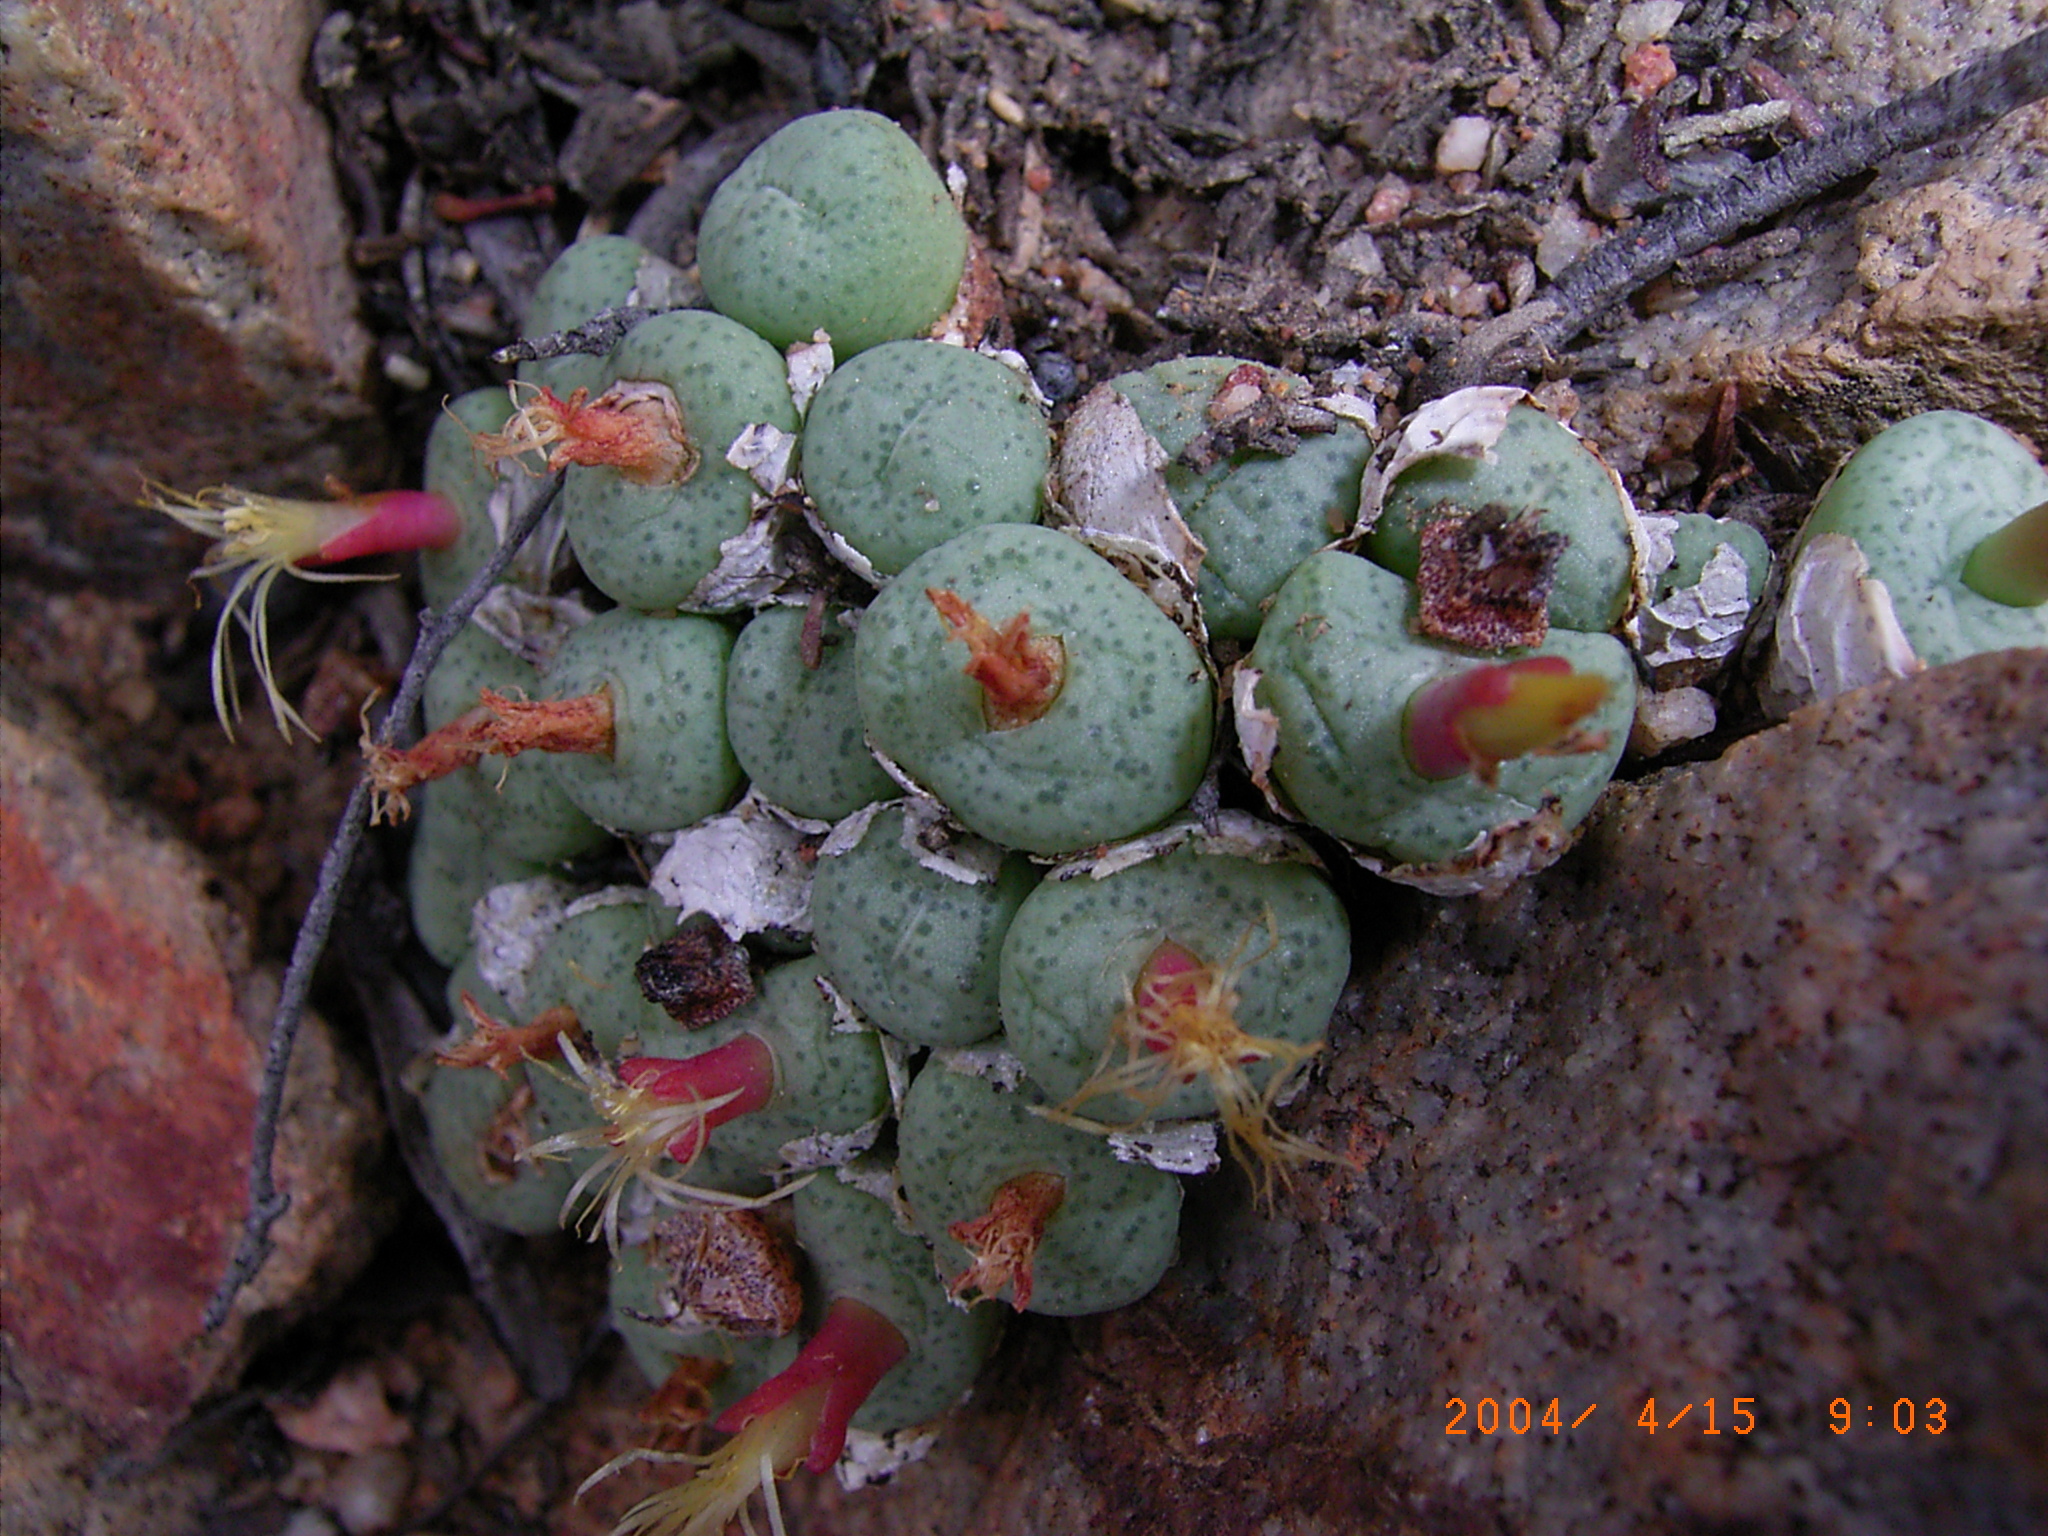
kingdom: Plantae
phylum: Tracheophyta
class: Magnoliopsida
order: Caryophyllales
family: Aizoaceae
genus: Conophytum
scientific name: Conophytum truncatum
